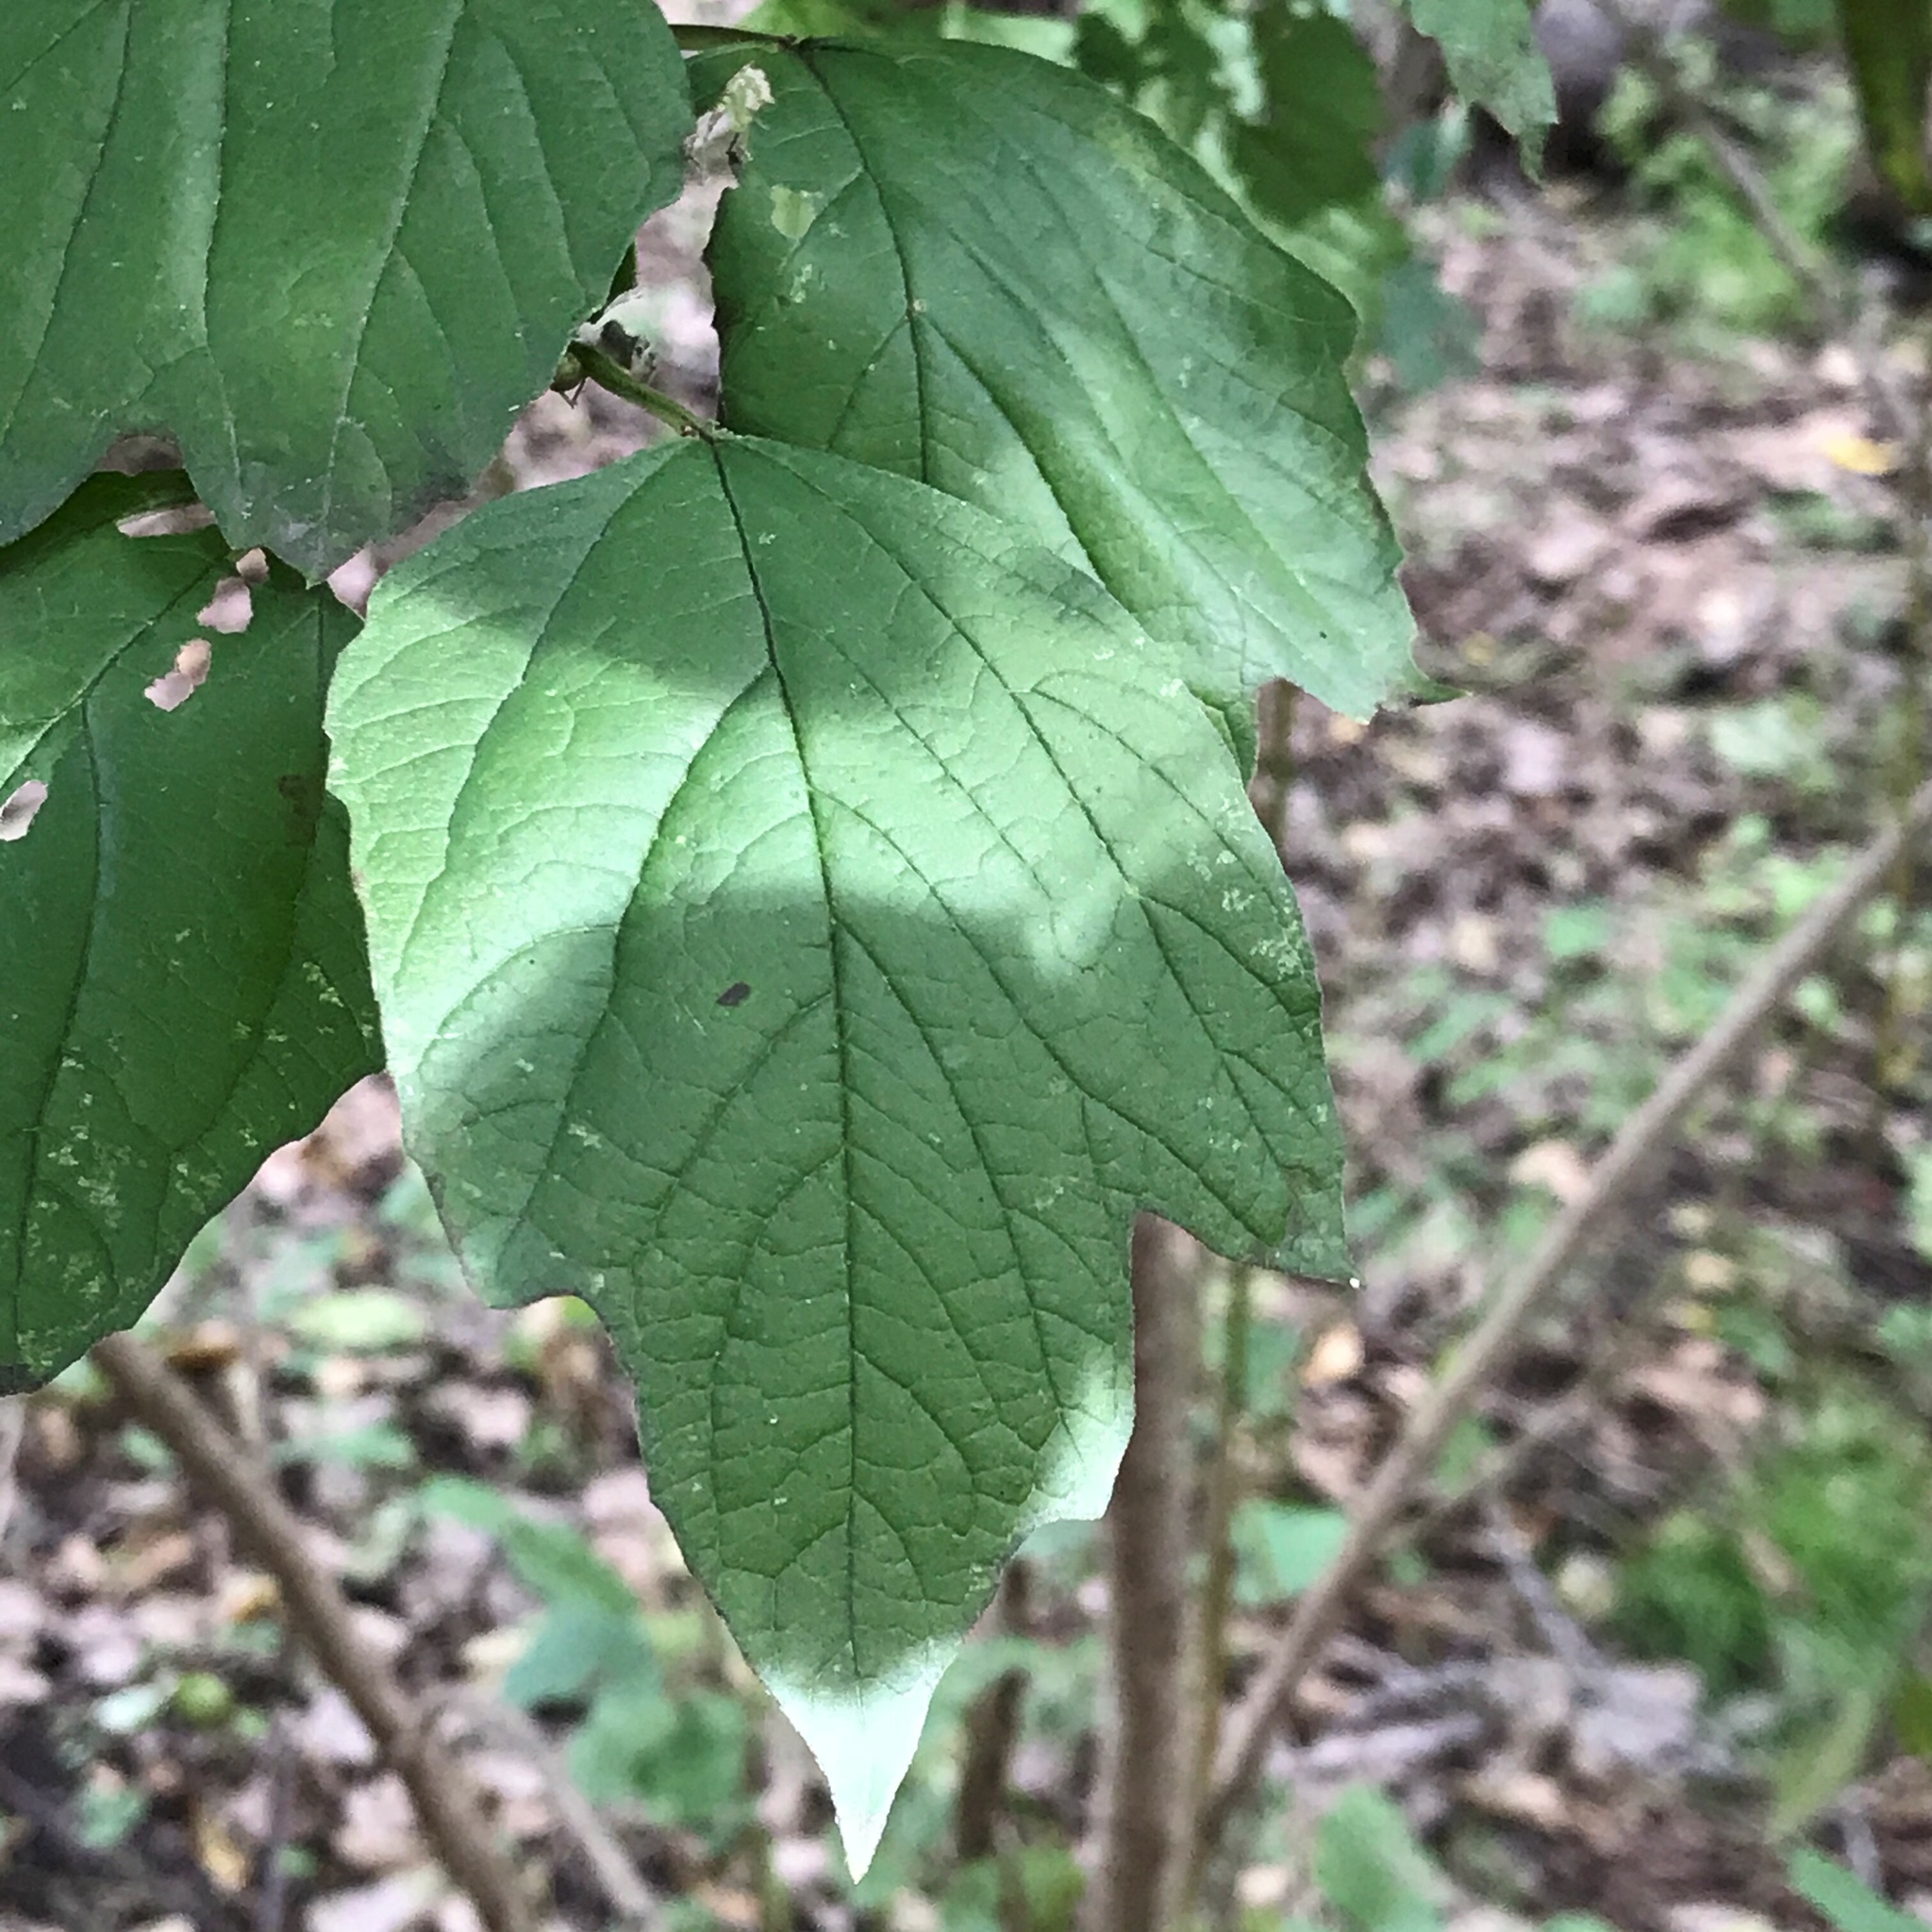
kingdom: Plantae
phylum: Tracheophyta
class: Magnoliopsida
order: Dipsacales
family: Viburnaceae
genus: Viburnum
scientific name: Viburnum opulus
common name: Guelder-rose
